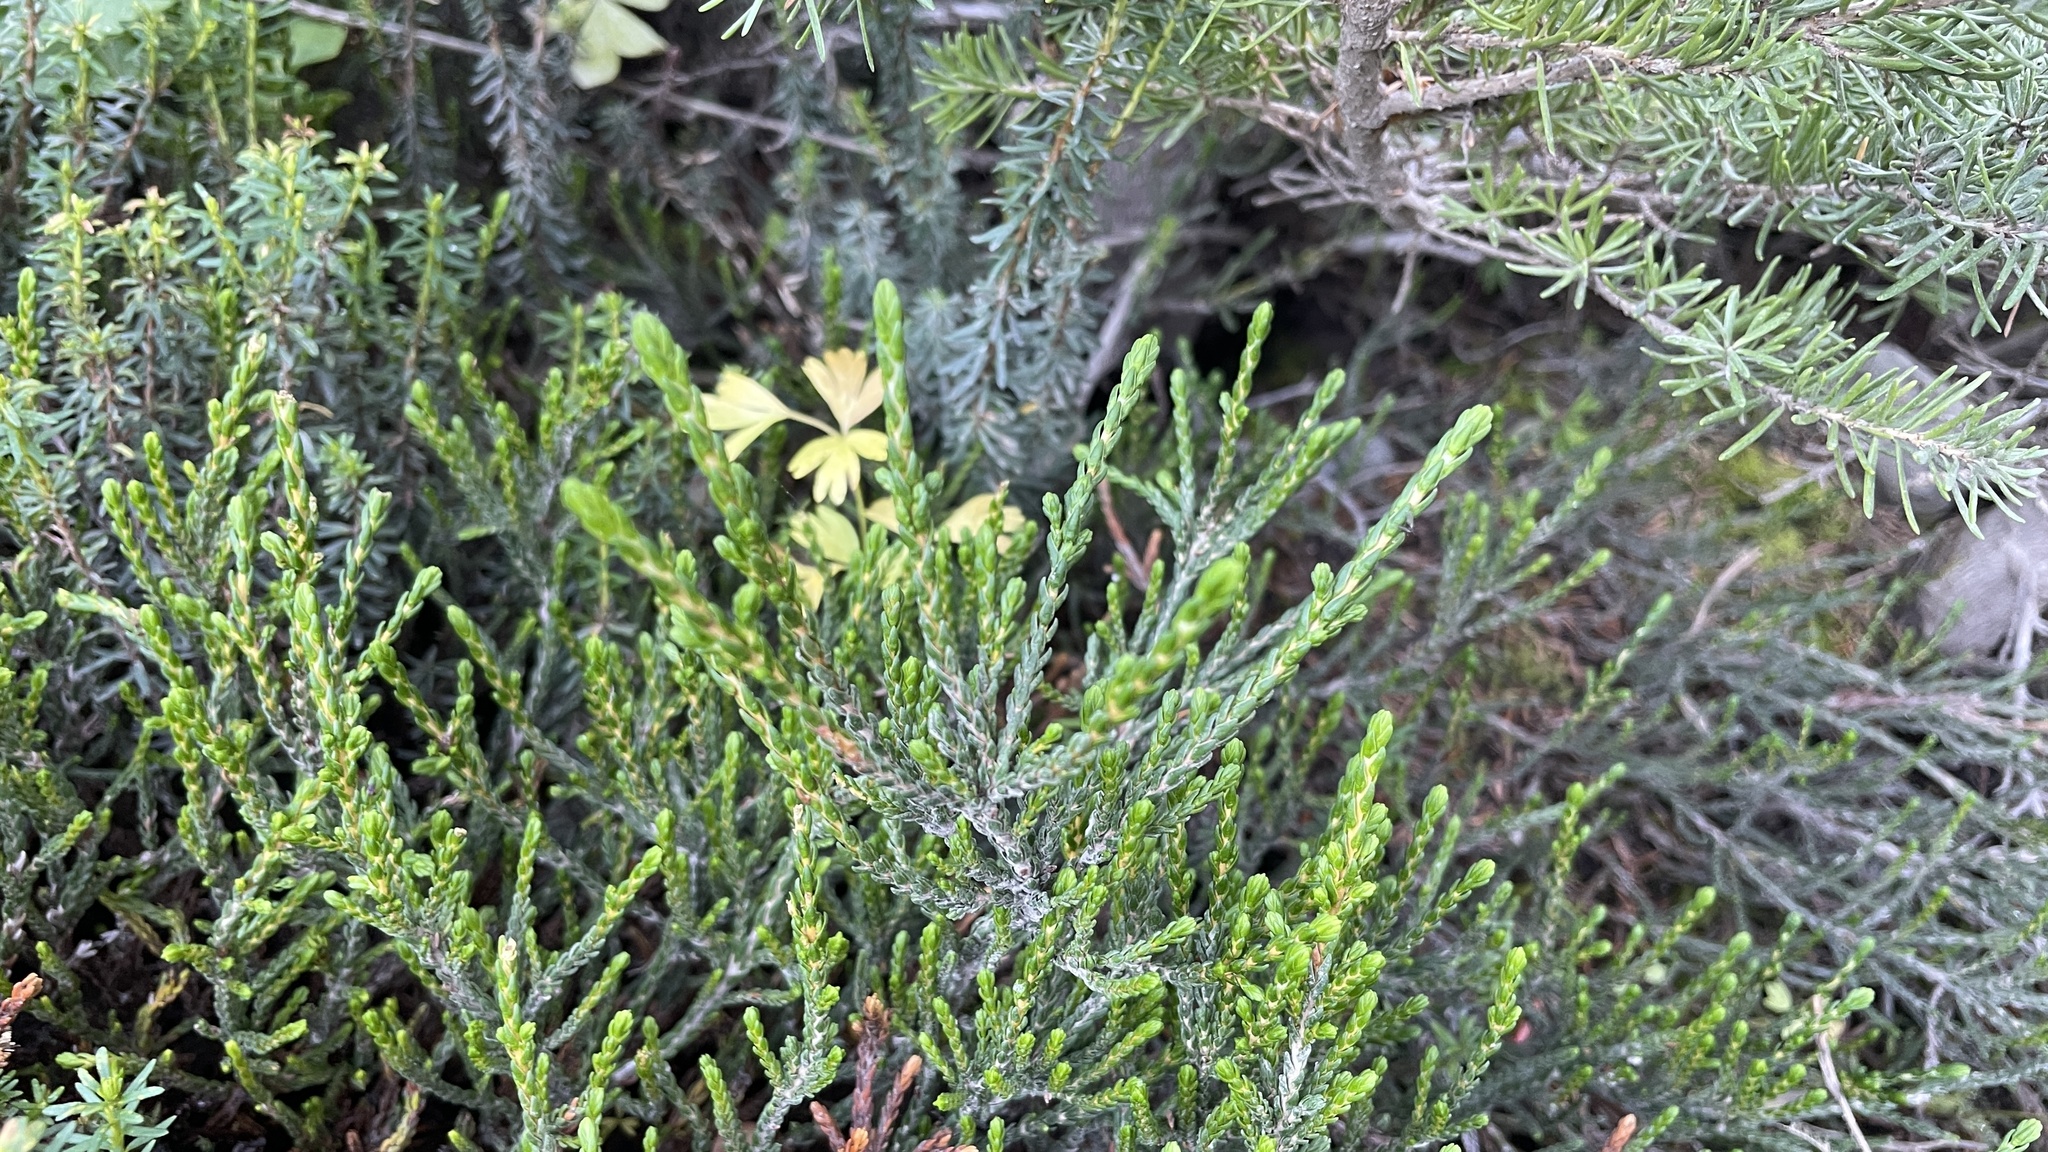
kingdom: Plantae
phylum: Tracheophyta
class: Magnoliopsida
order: Ericales
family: Ericaceae
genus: Cassiope
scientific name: Cassiope mertensiana
